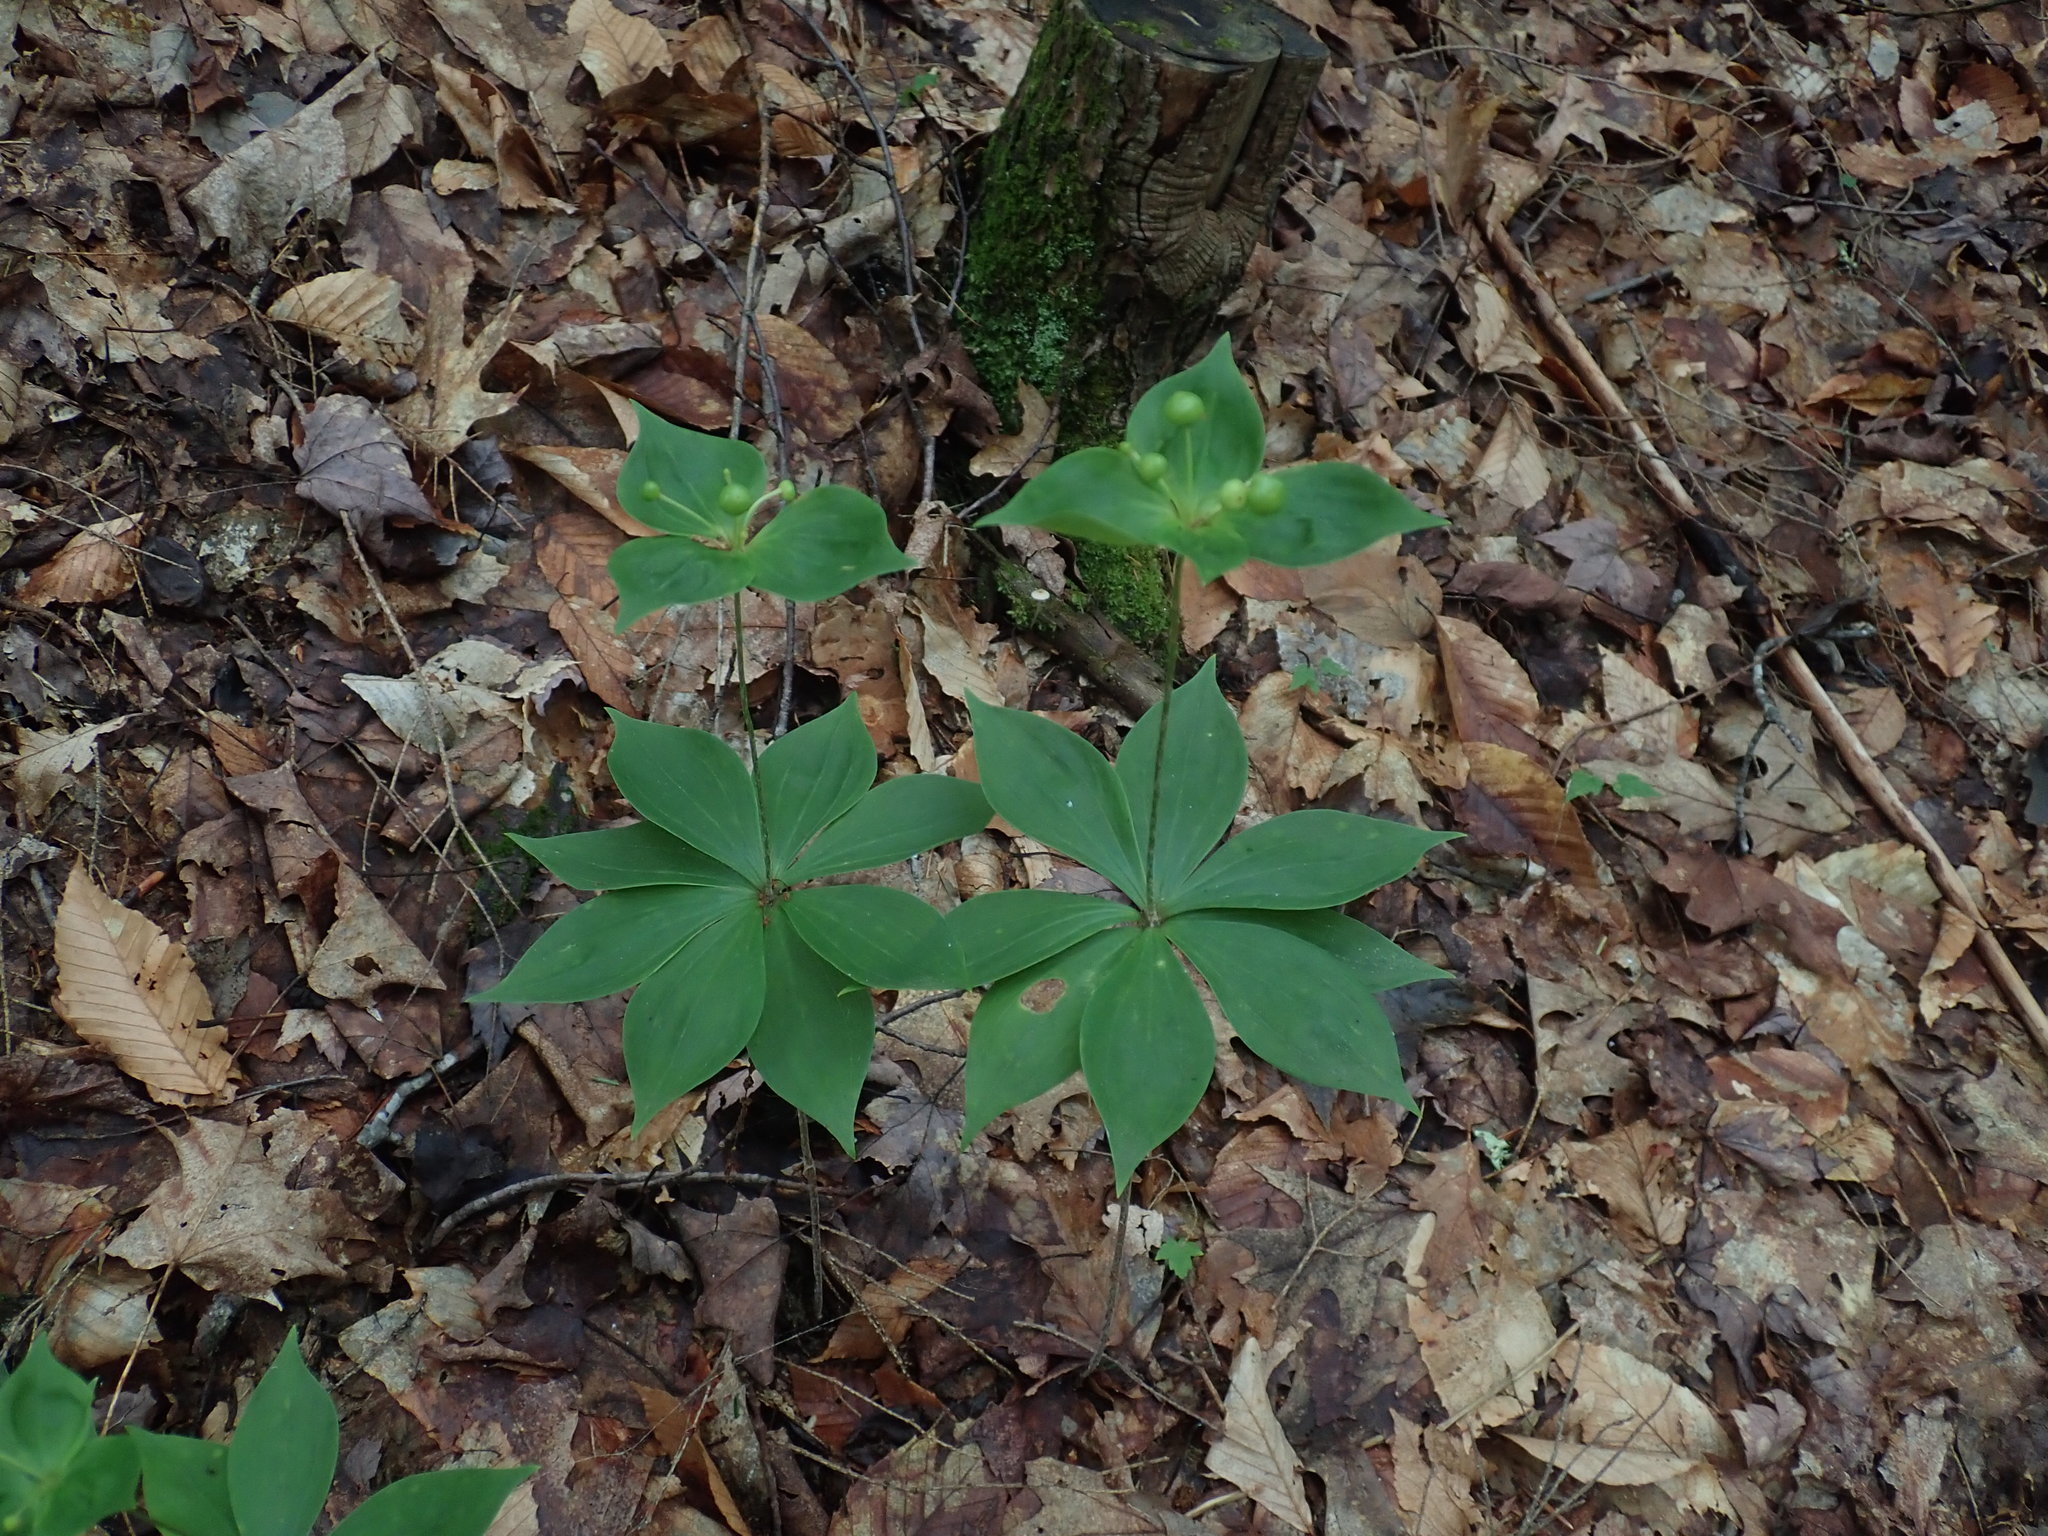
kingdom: Plantae
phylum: Tracheophyta
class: Liliopsida
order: Liliales
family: Liliaceae
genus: Medeola
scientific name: Medeola virginiana
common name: Indian cucumber-root
